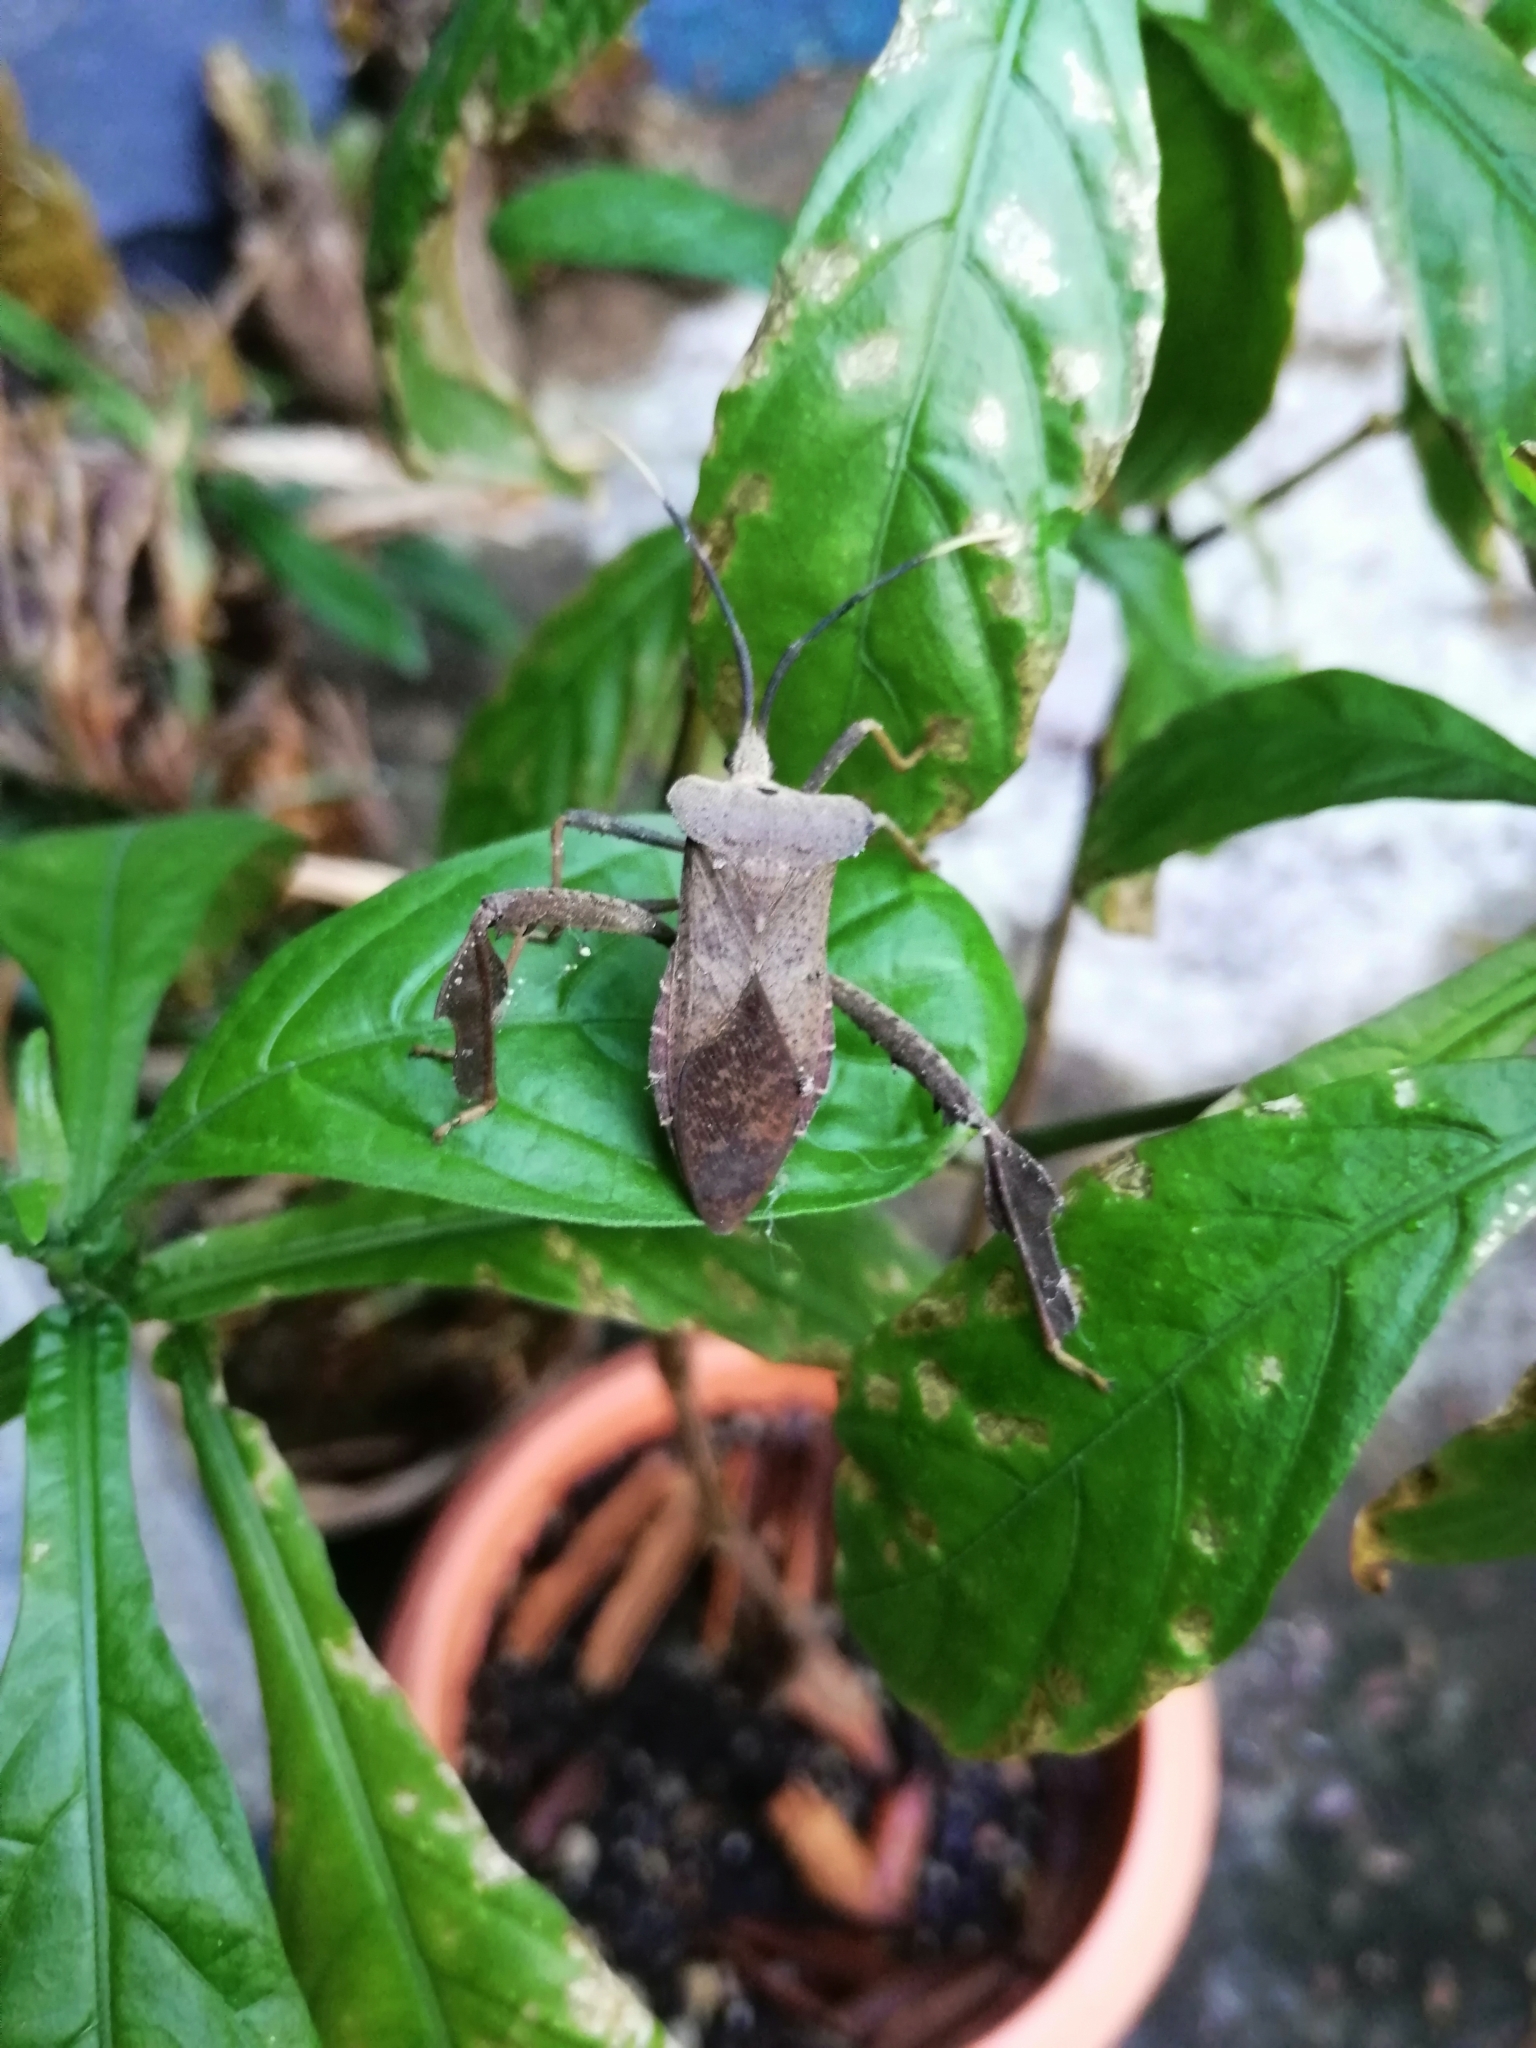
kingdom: Animalia
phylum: Arthropoda
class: Insecta
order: Hemiptera
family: Coreidae
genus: Acanthocephala
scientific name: Acanthocephala alata
